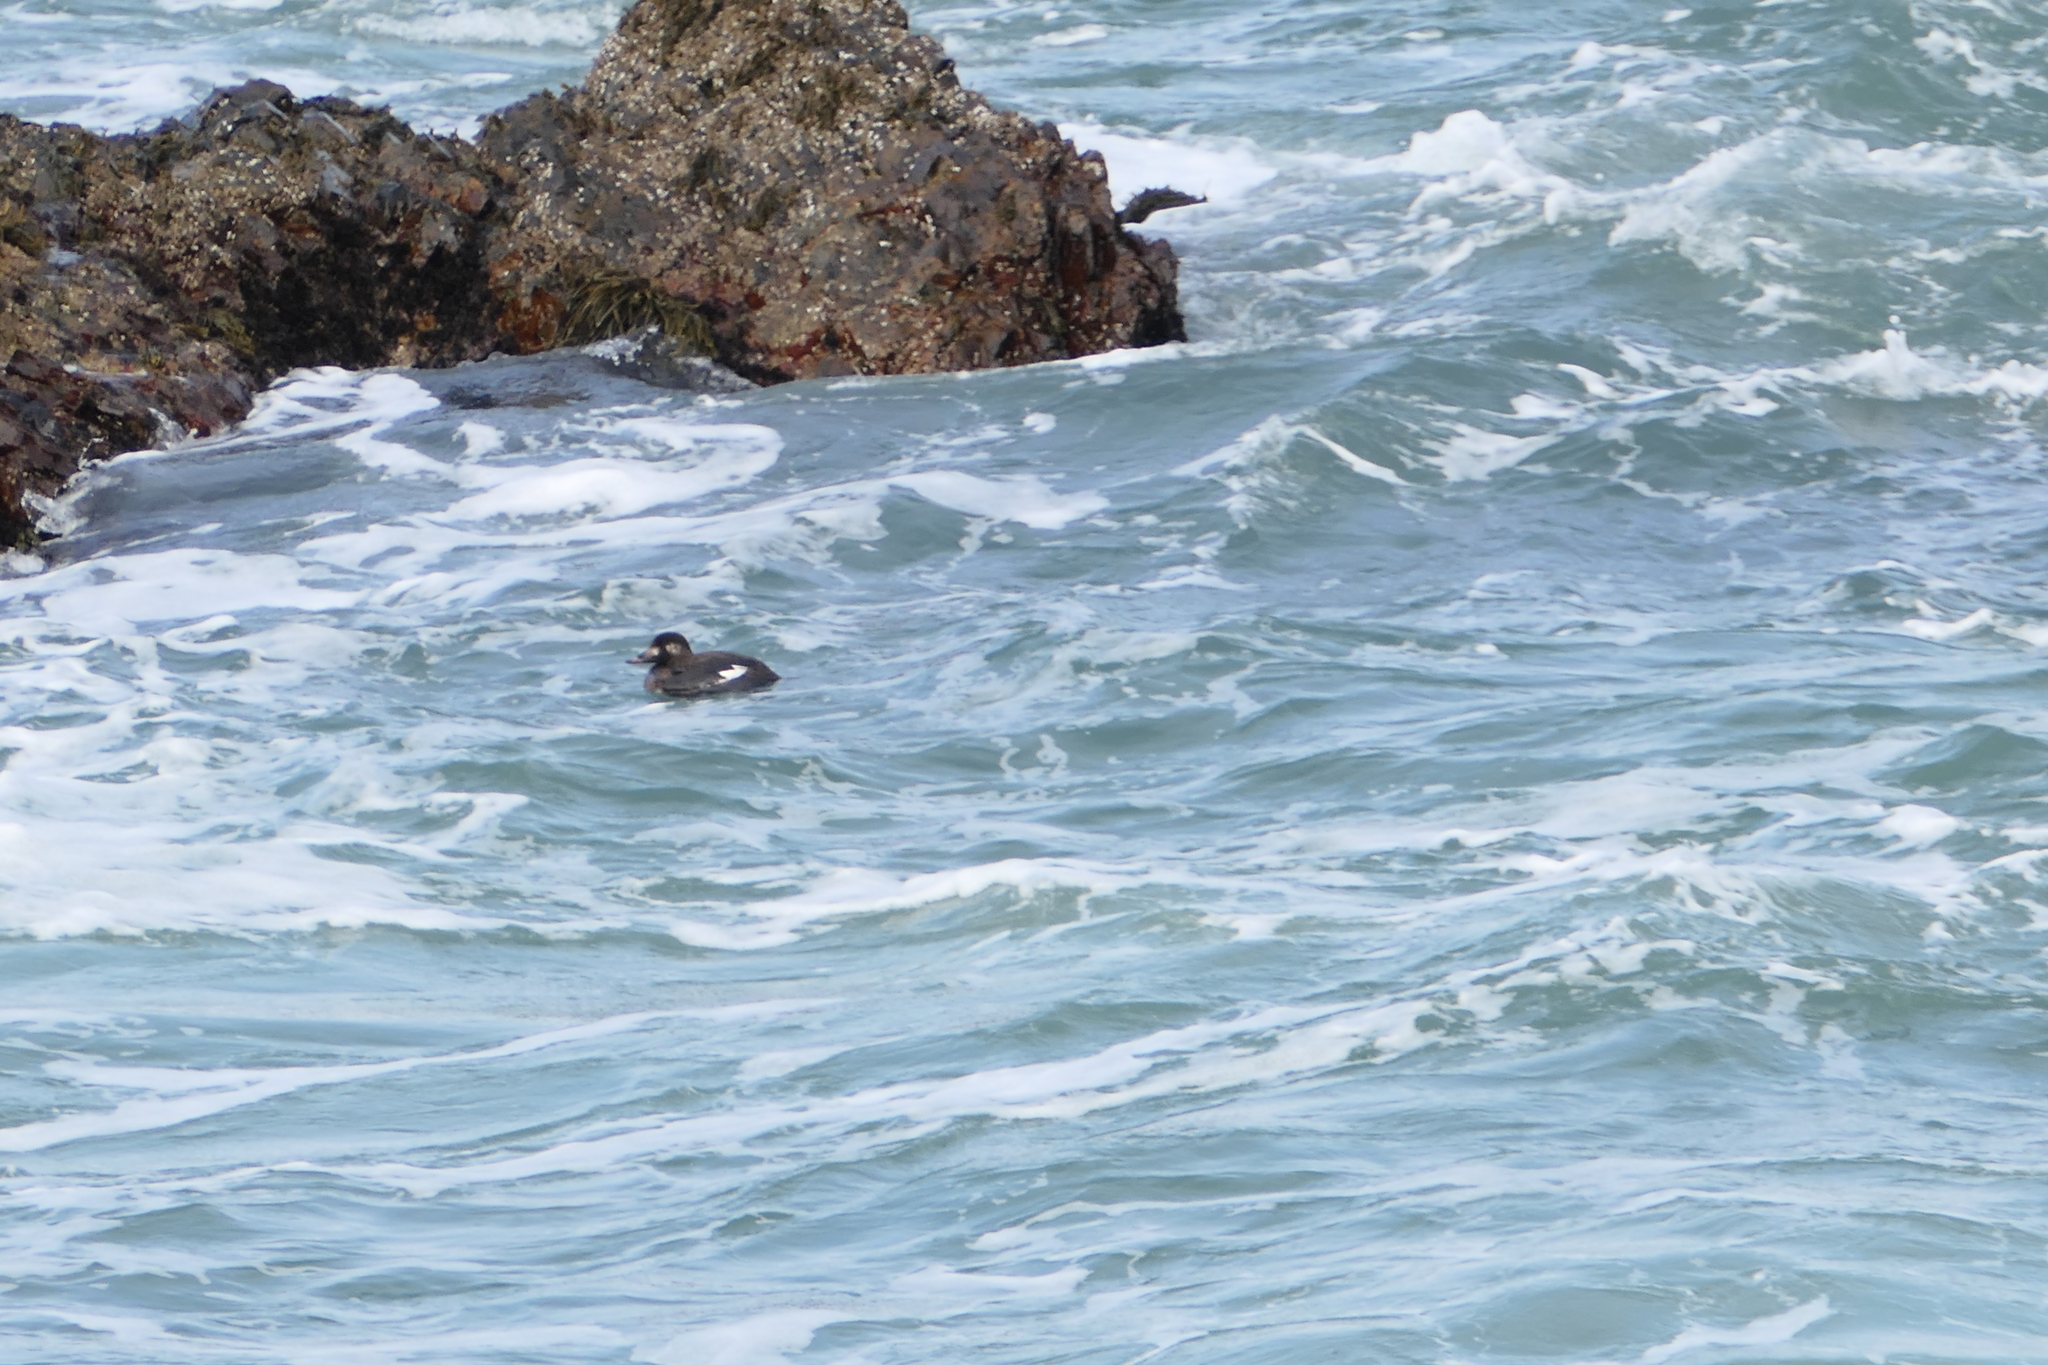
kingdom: Animalia
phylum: Chordata
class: Aves
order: Anseriformes
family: Anatidae
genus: Melanitta
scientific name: Melanitta deglandi
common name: White-winged scoter
